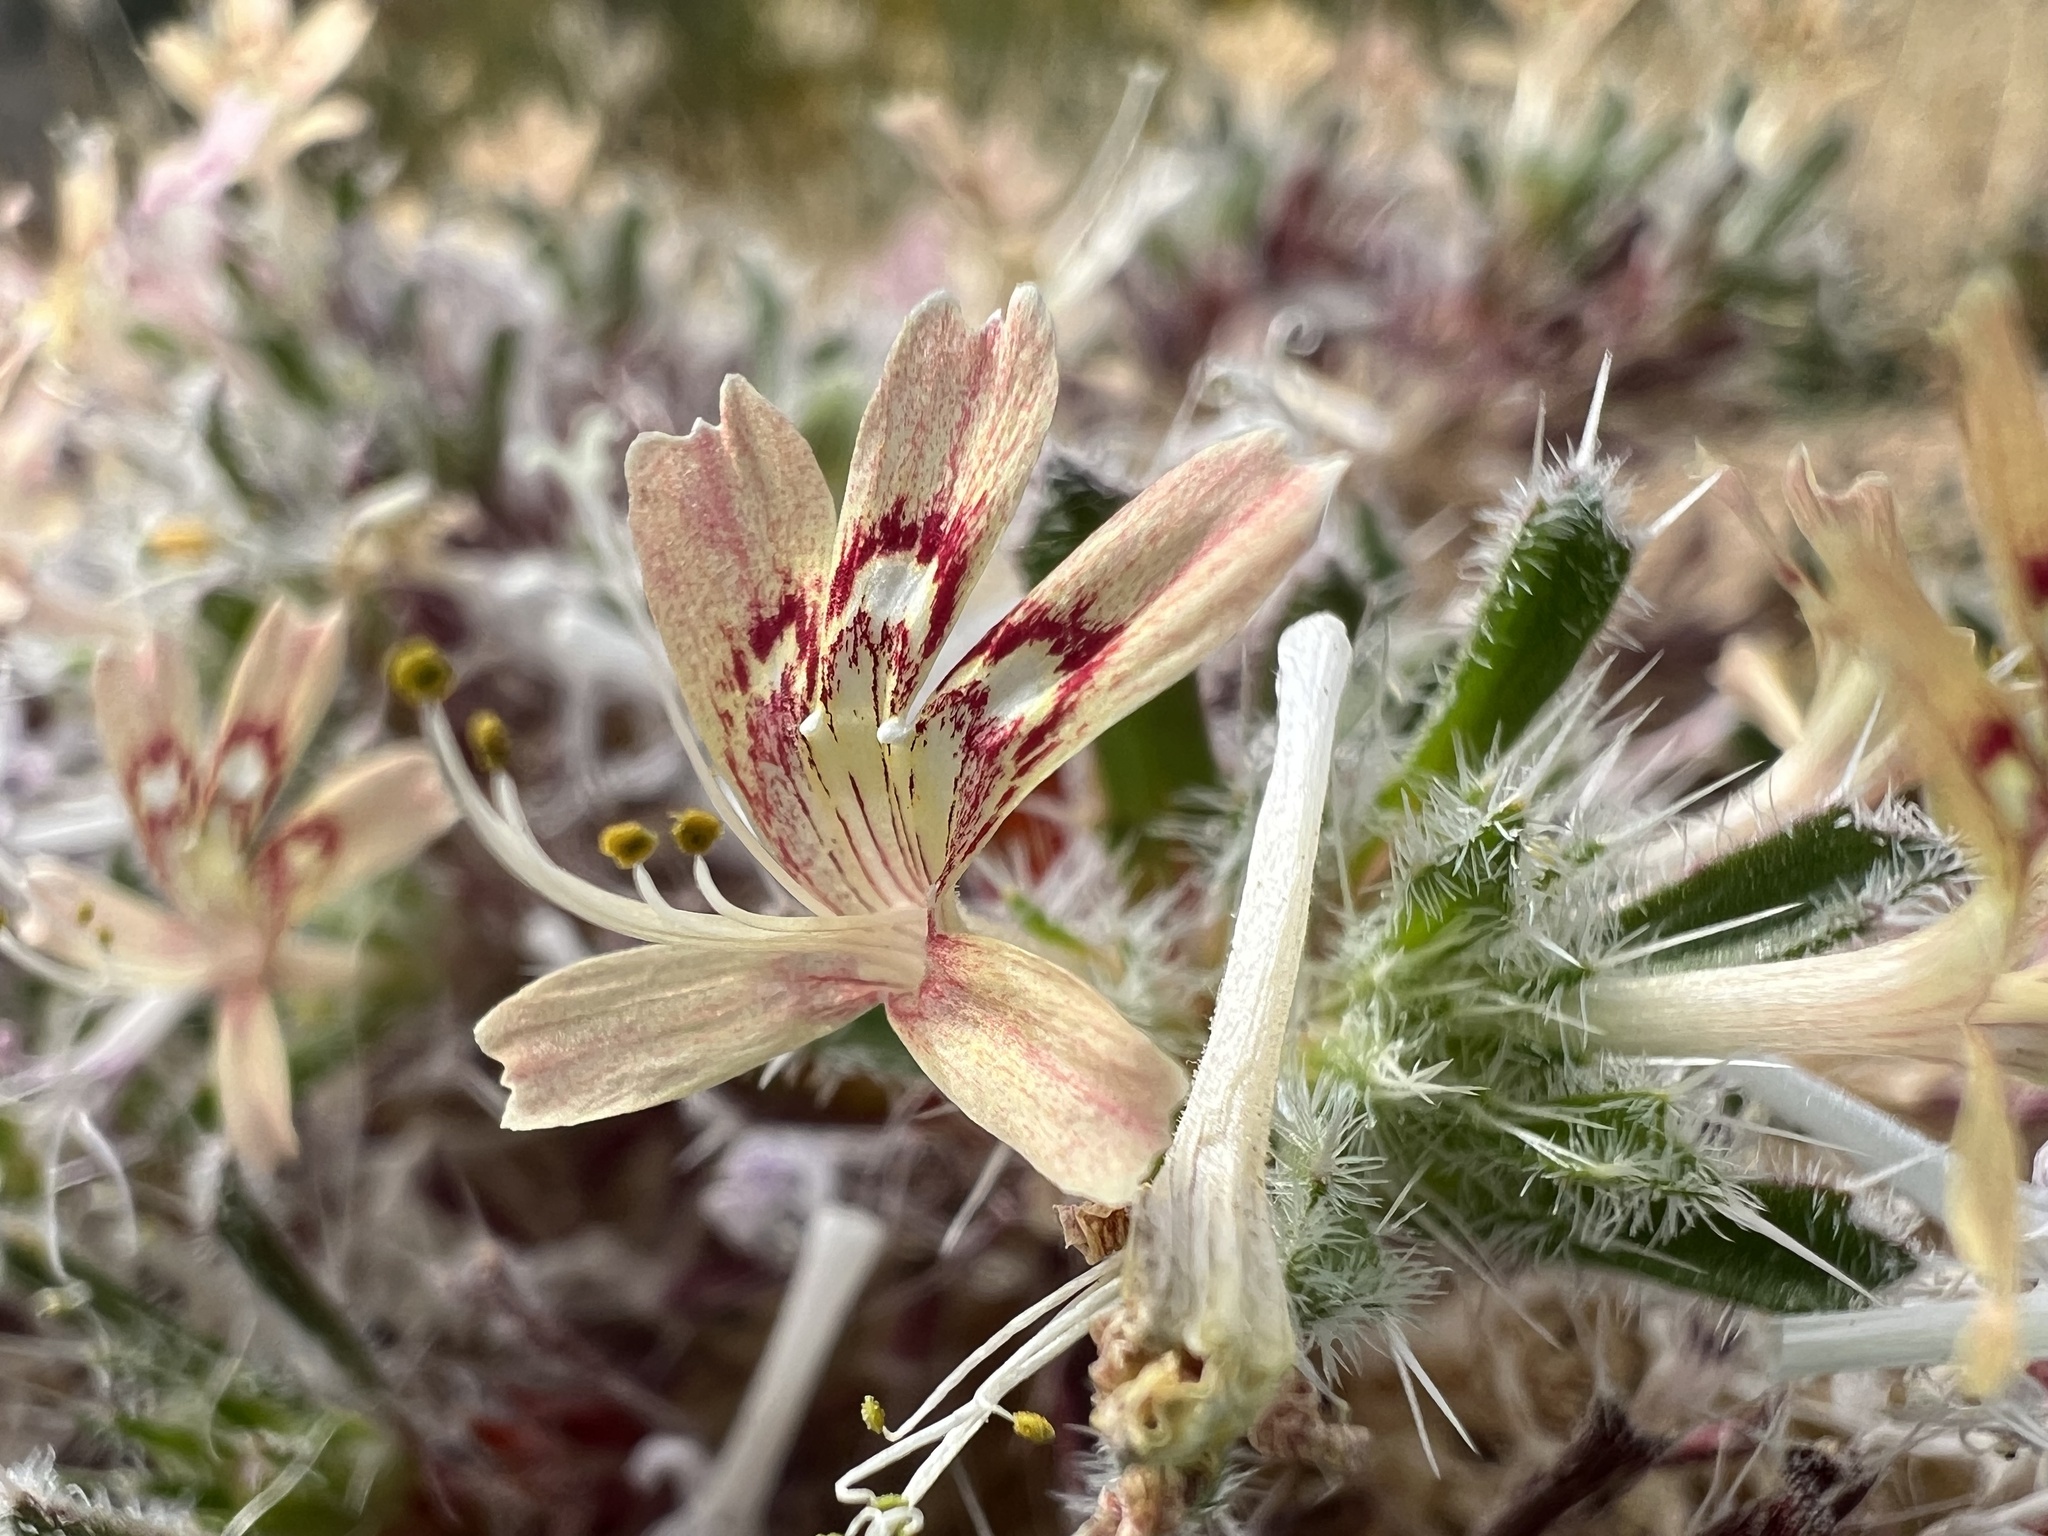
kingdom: Plantae
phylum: Tracheophyta
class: Magnoliopsida
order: Ericales
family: Polemoniaceae
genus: Loeseliastrum
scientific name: Loeseliastrum matthewsii
